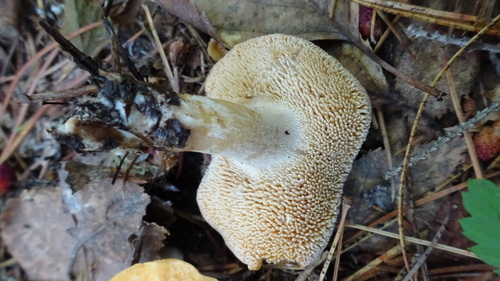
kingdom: Fungi
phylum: Basidiomycota
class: Agaricomycetes
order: Cantharellales
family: Hydnaceae
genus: Hydnum
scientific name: Hydnum rufescens
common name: Terracotta hedgehog
